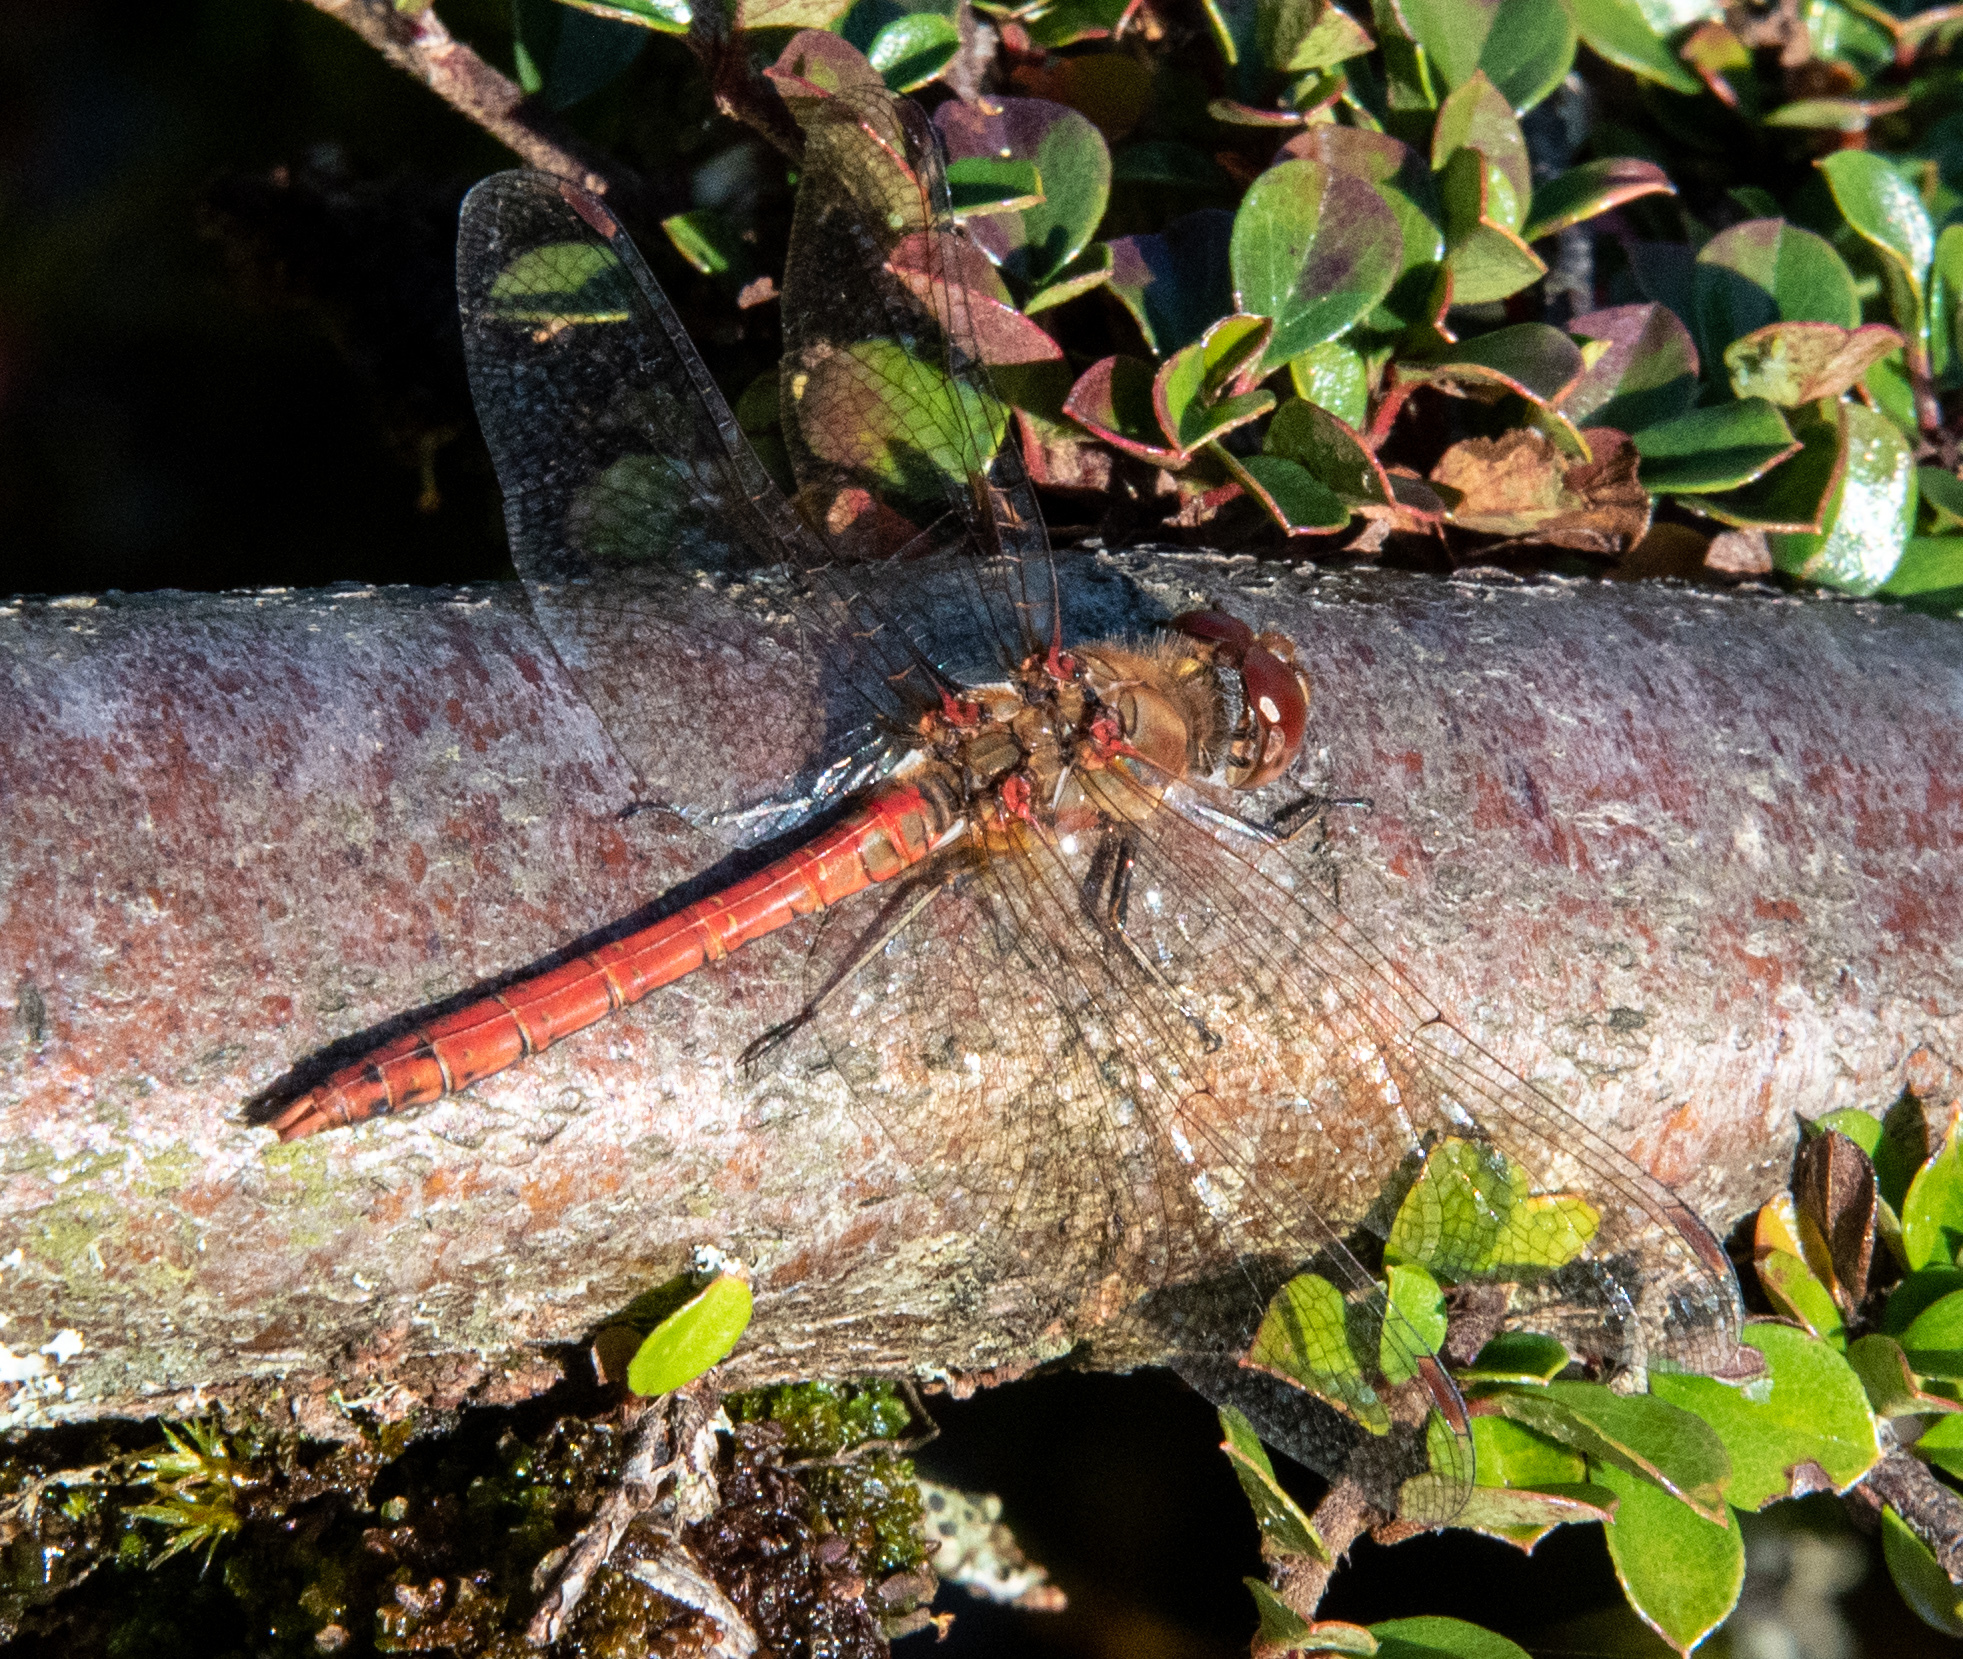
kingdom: Animalia
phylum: Arthropoda
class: Insecta
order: Odonata
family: Libellulidae
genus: Sympetrum
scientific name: Sympetrum striolatum
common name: Common darter
